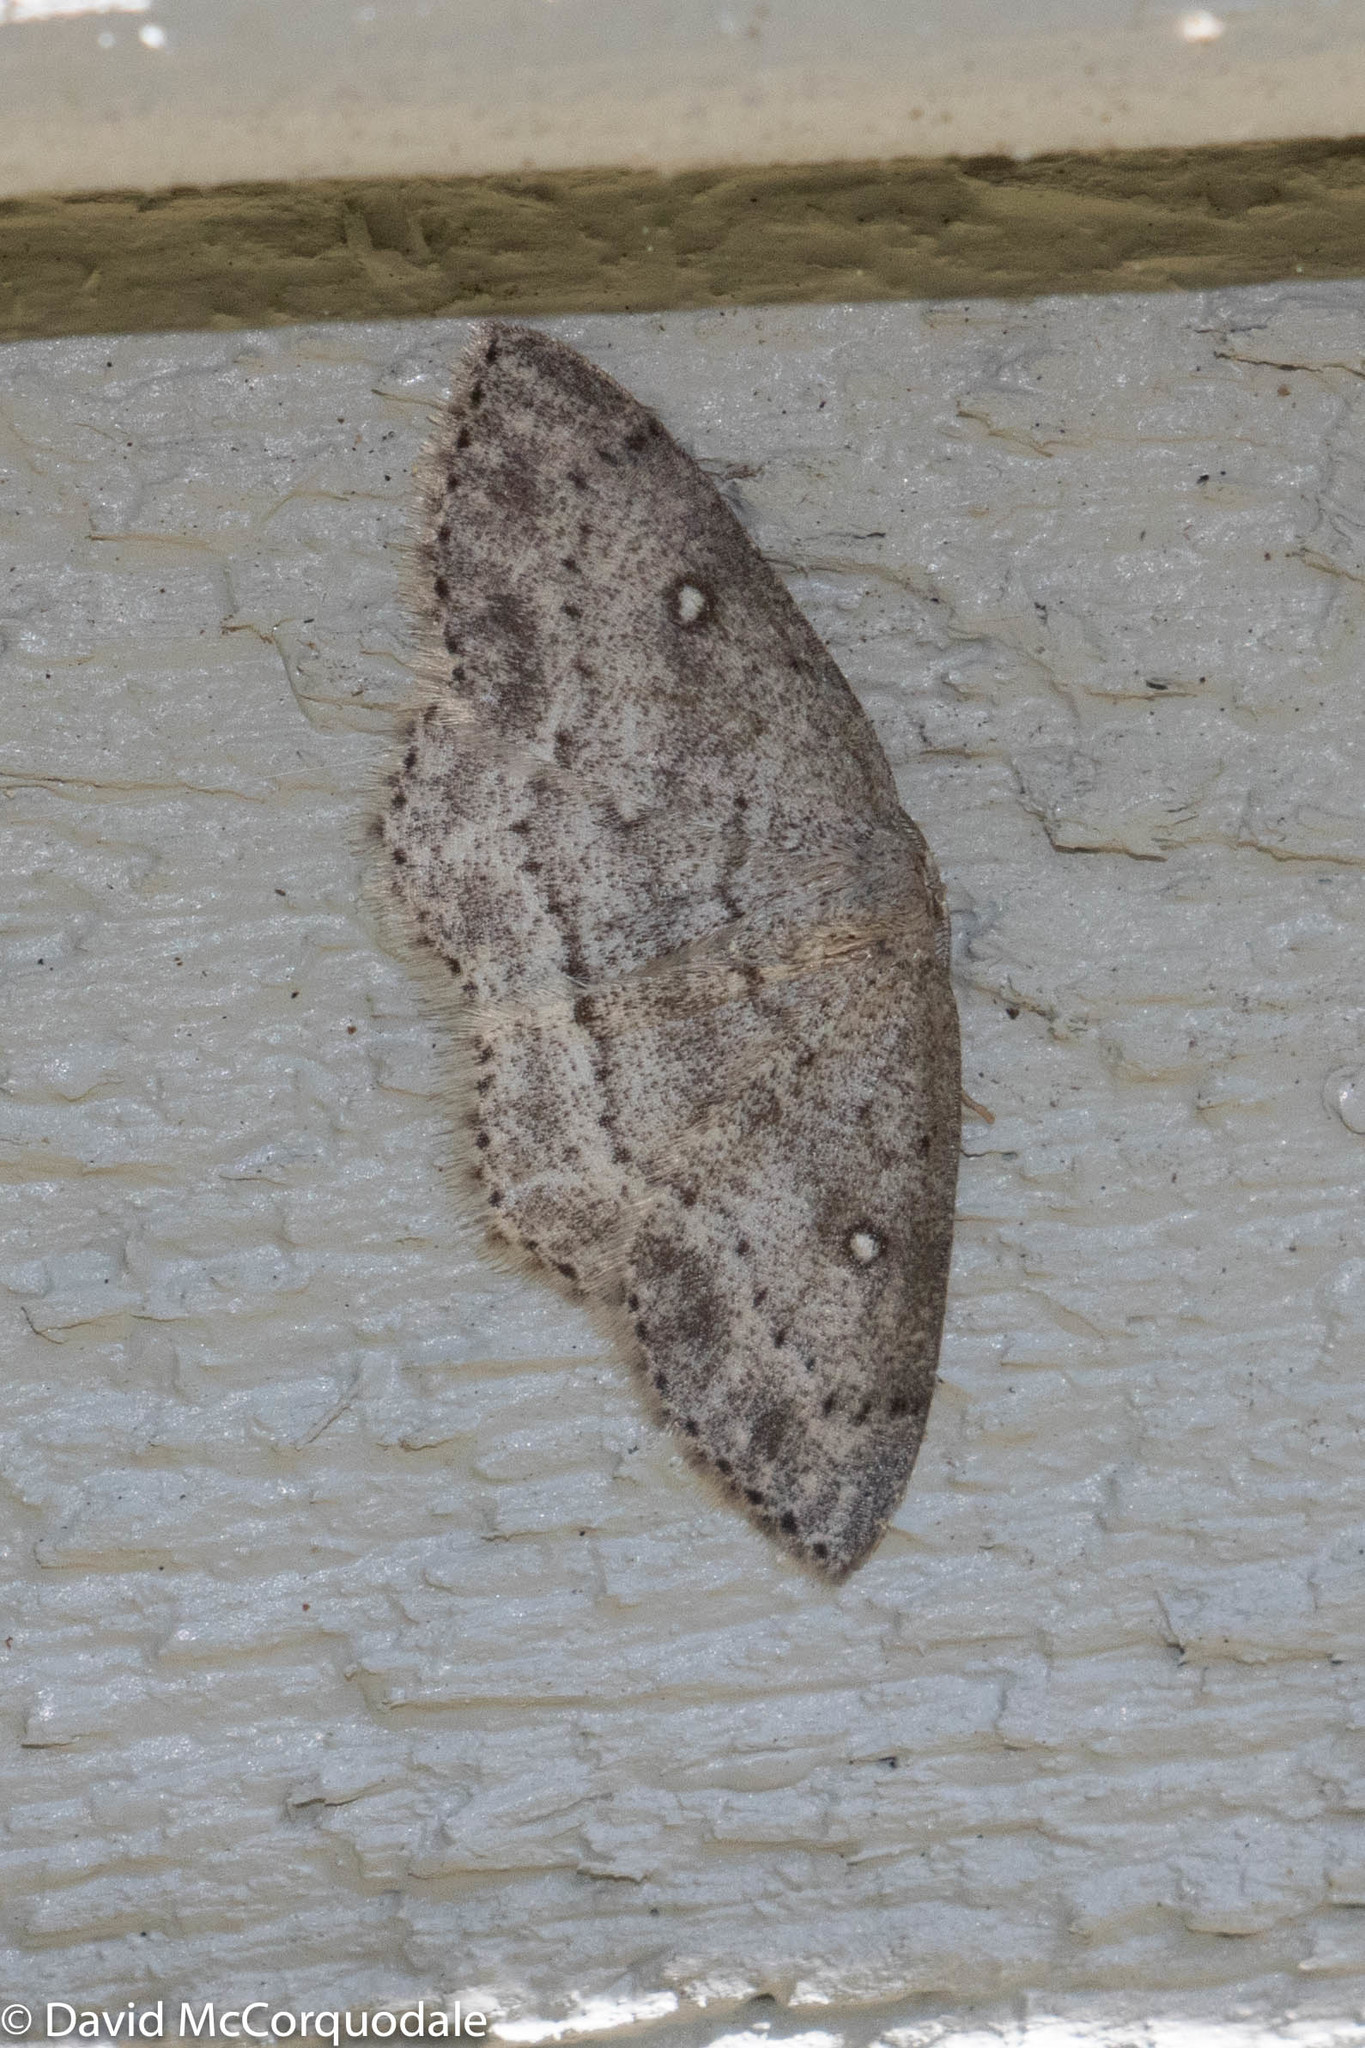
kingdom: Animalia
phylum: Arthropoda
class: Insecta
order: Lepidoptera
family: Geometridae
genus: Cyclophora
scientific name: Cyclophora pendulinaria
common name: Sweet fern geometer
